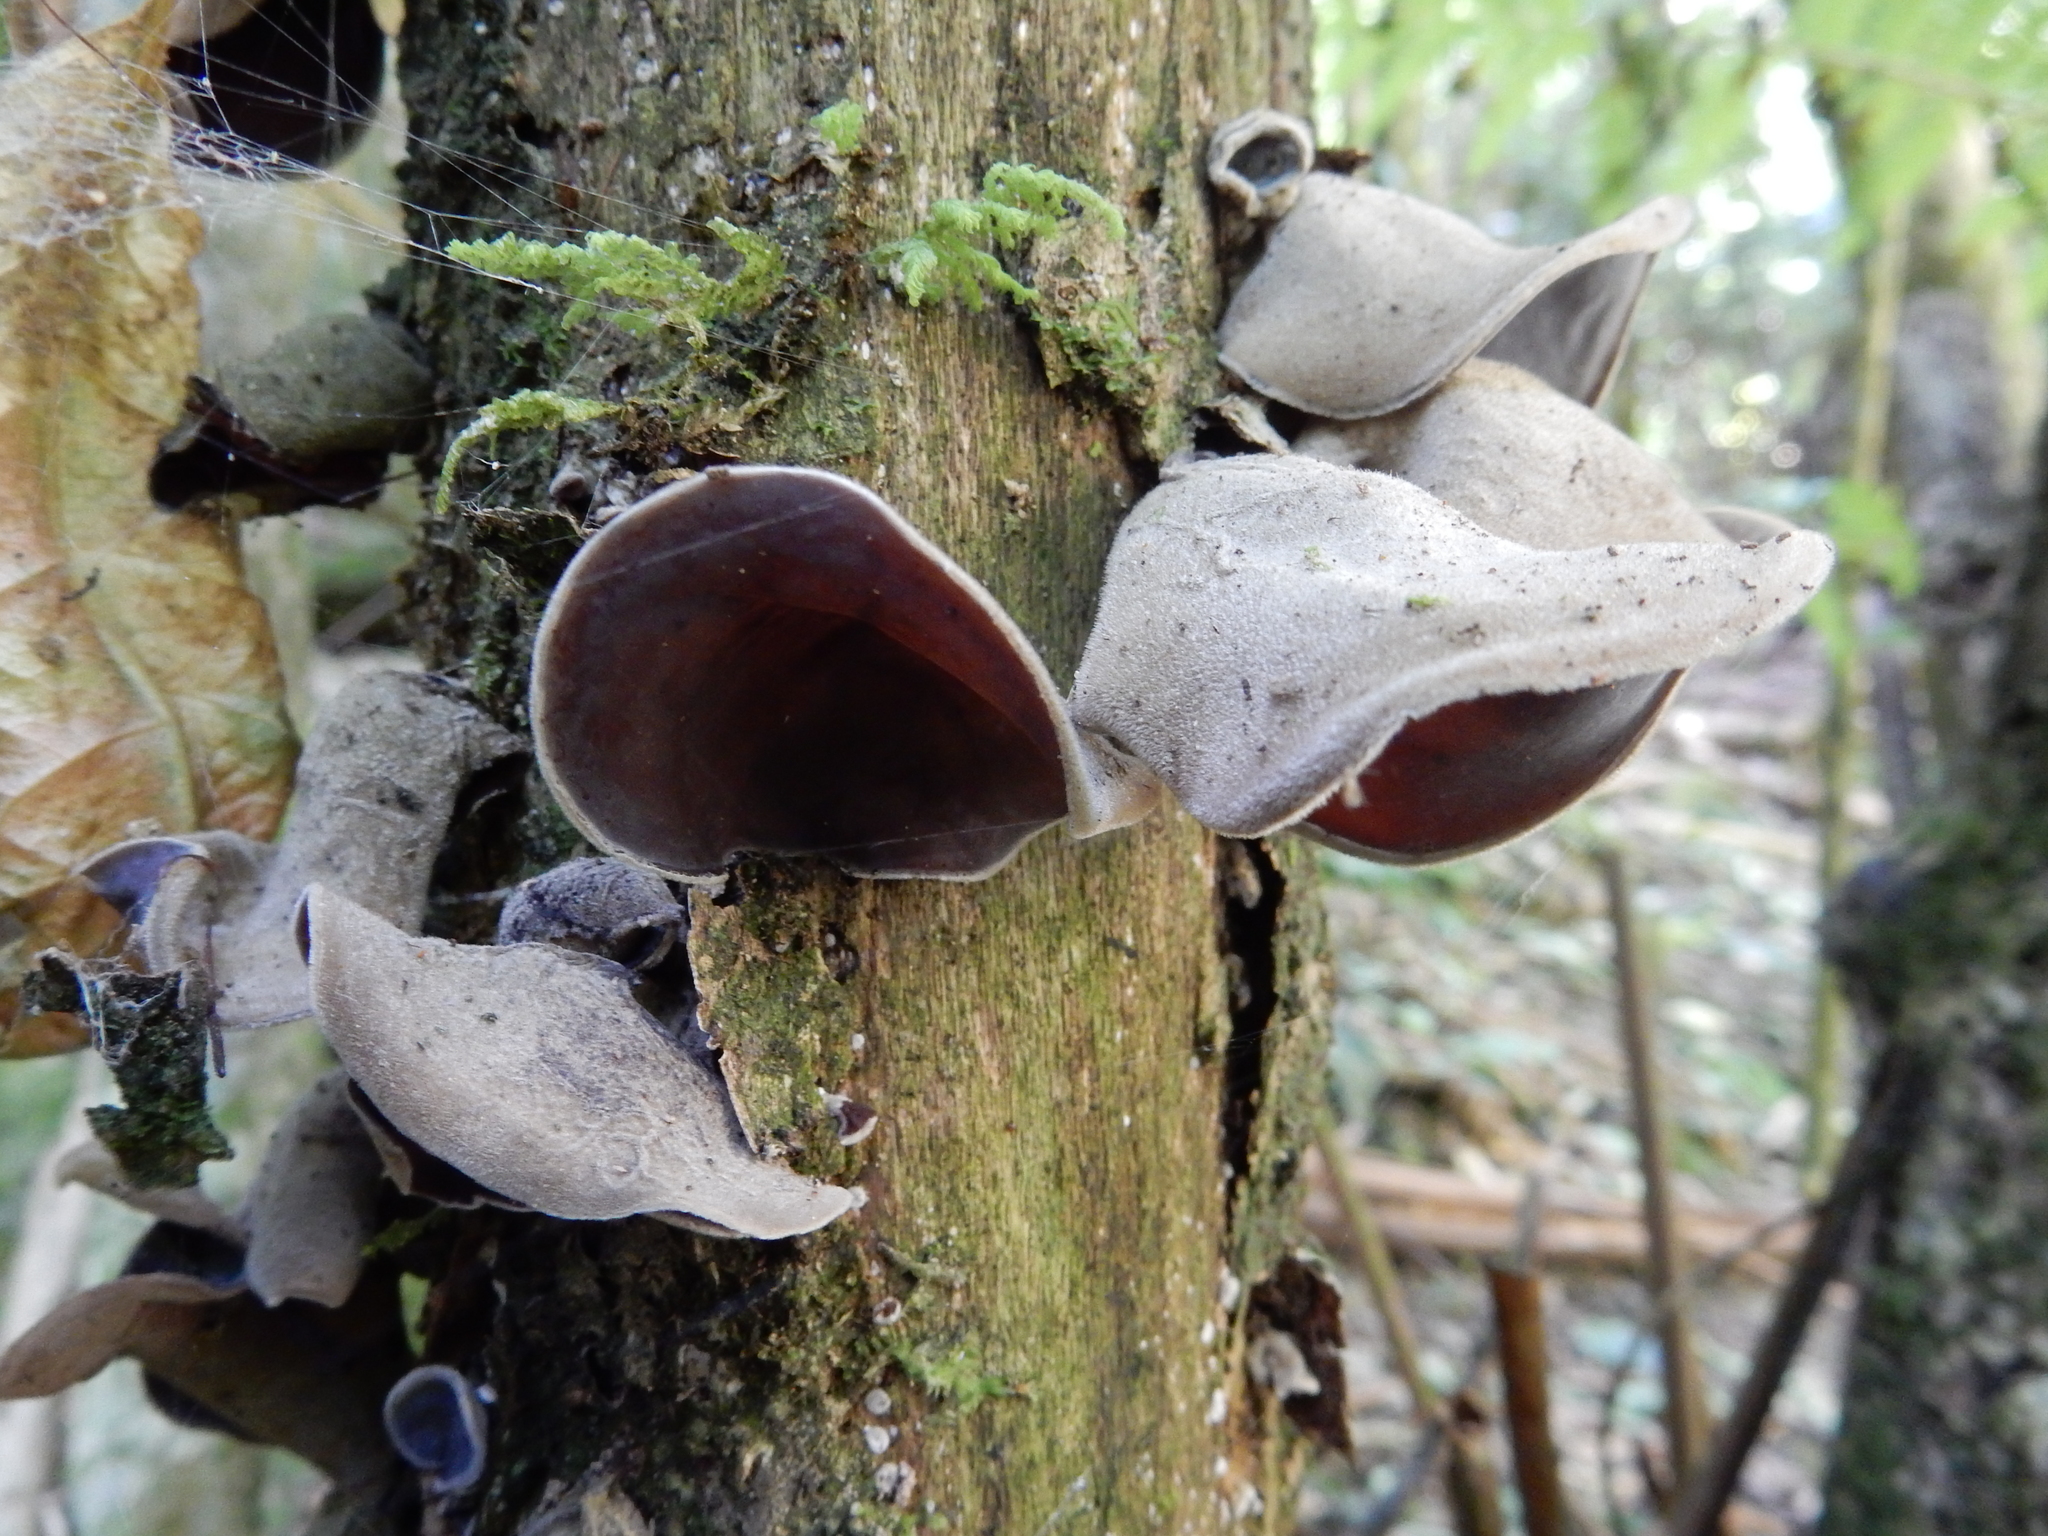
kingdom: Fungi
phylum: Basidiomycota
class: Agaricomycetes
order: Auriculariales
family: Auriculariaceae
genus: Auricularia
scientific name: Auricularia cornea
